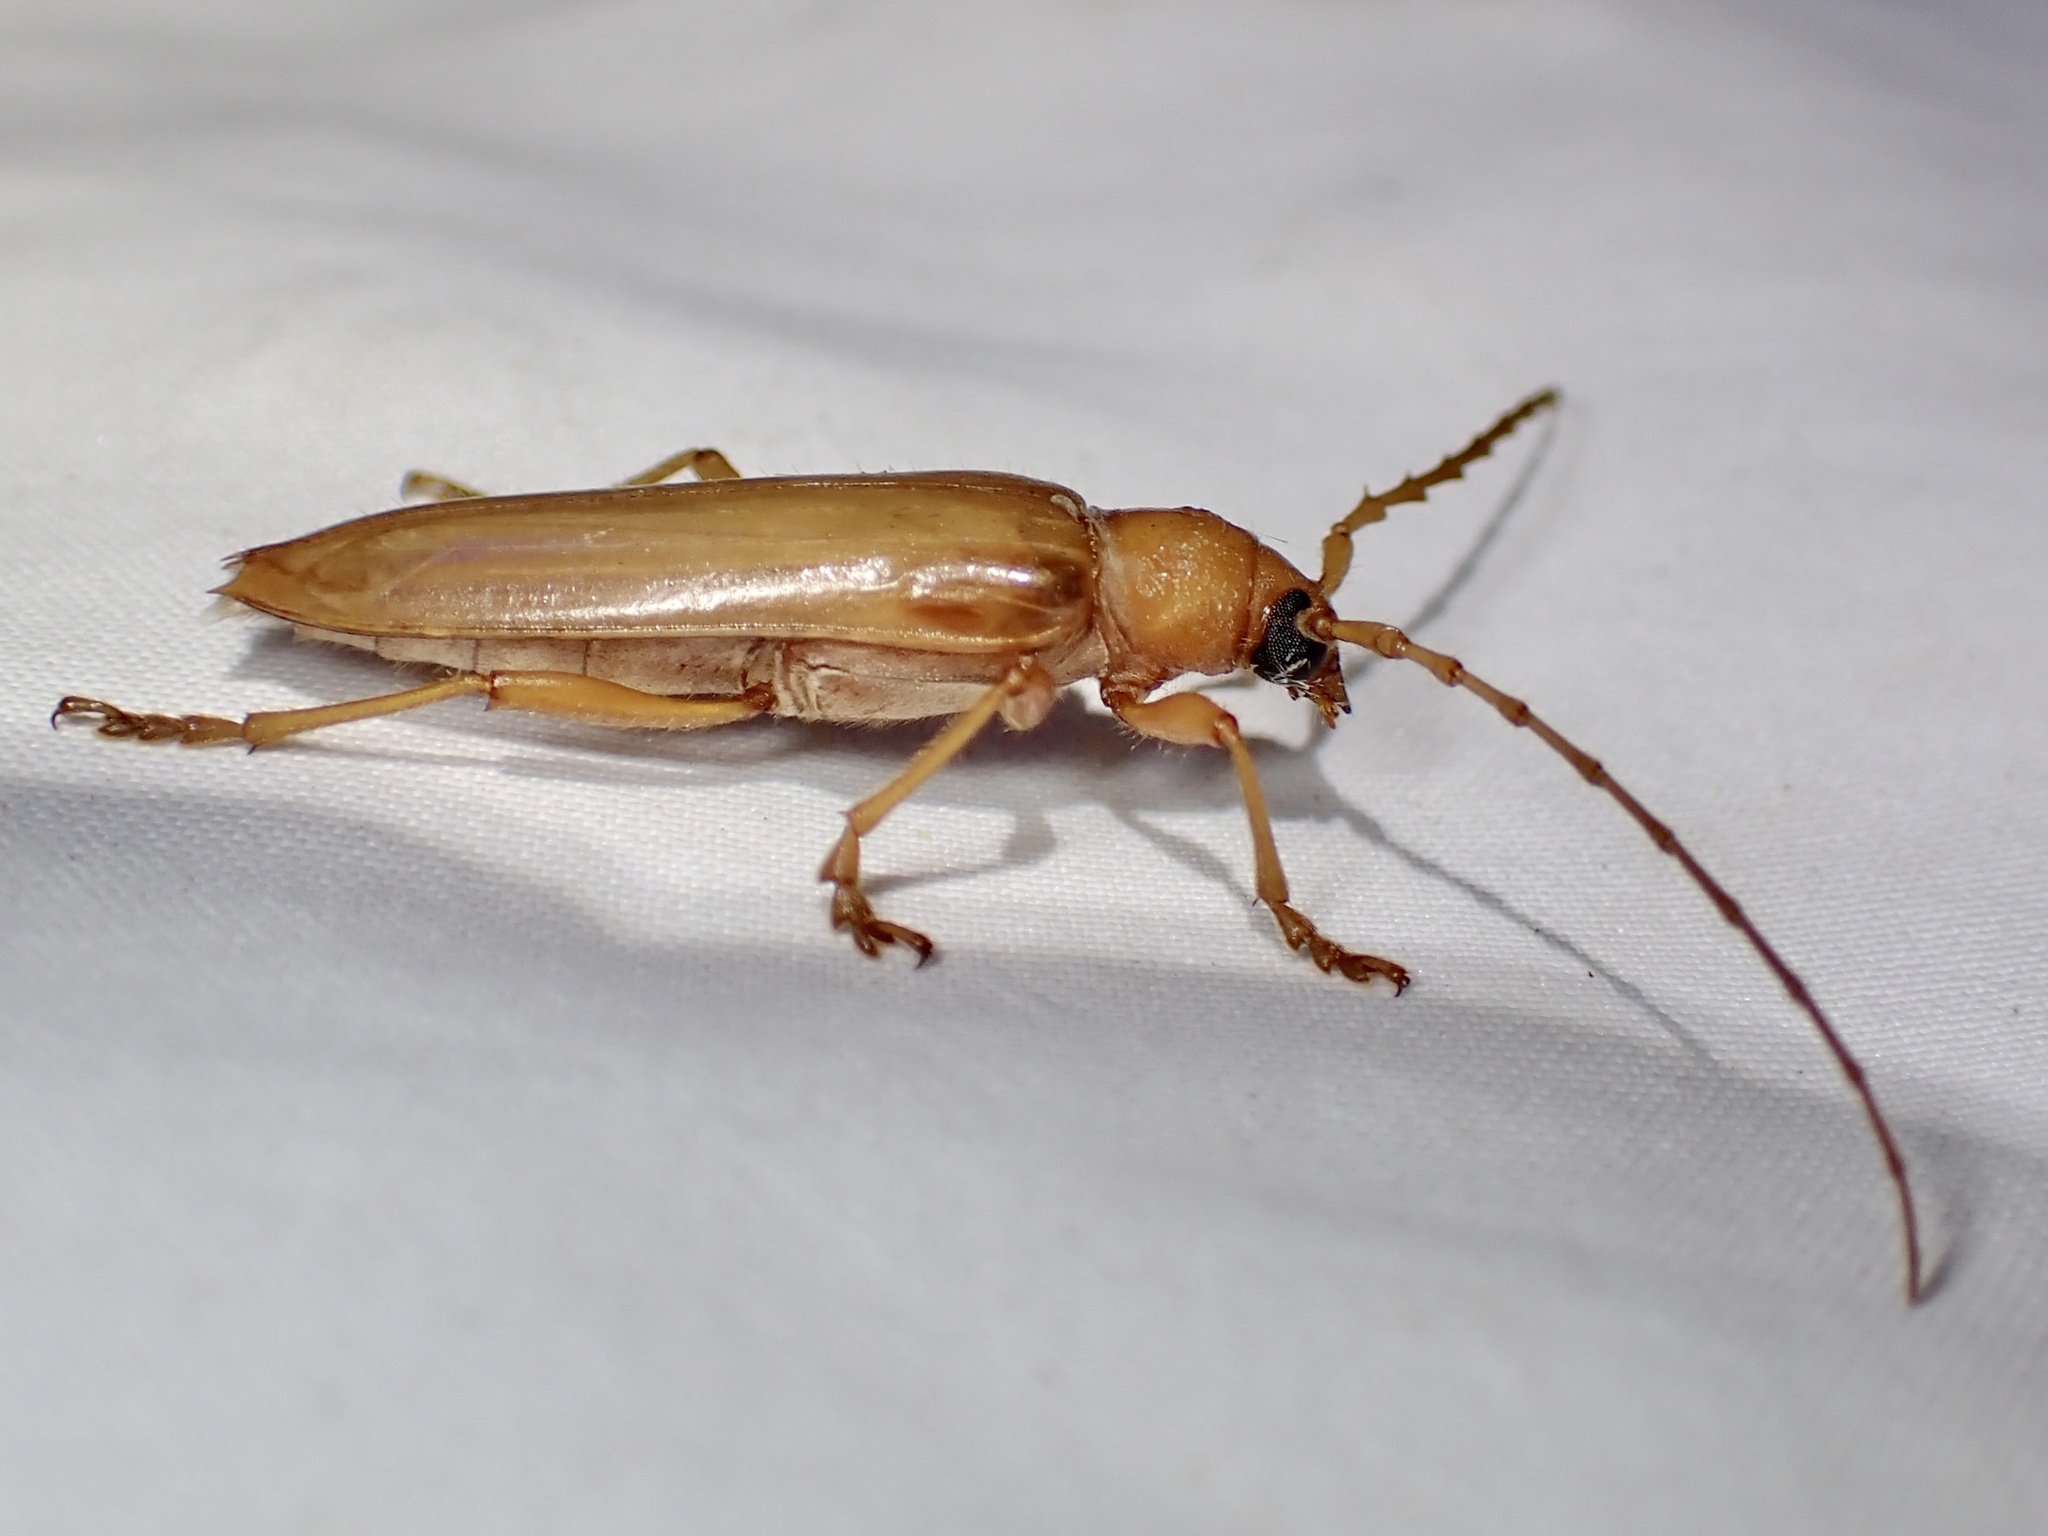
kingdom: Animalia
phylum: Arthropoda
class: Insecta
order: Coleoptera
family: Cerambycidae
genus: Atylostagma
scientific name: Atylostagma polita
